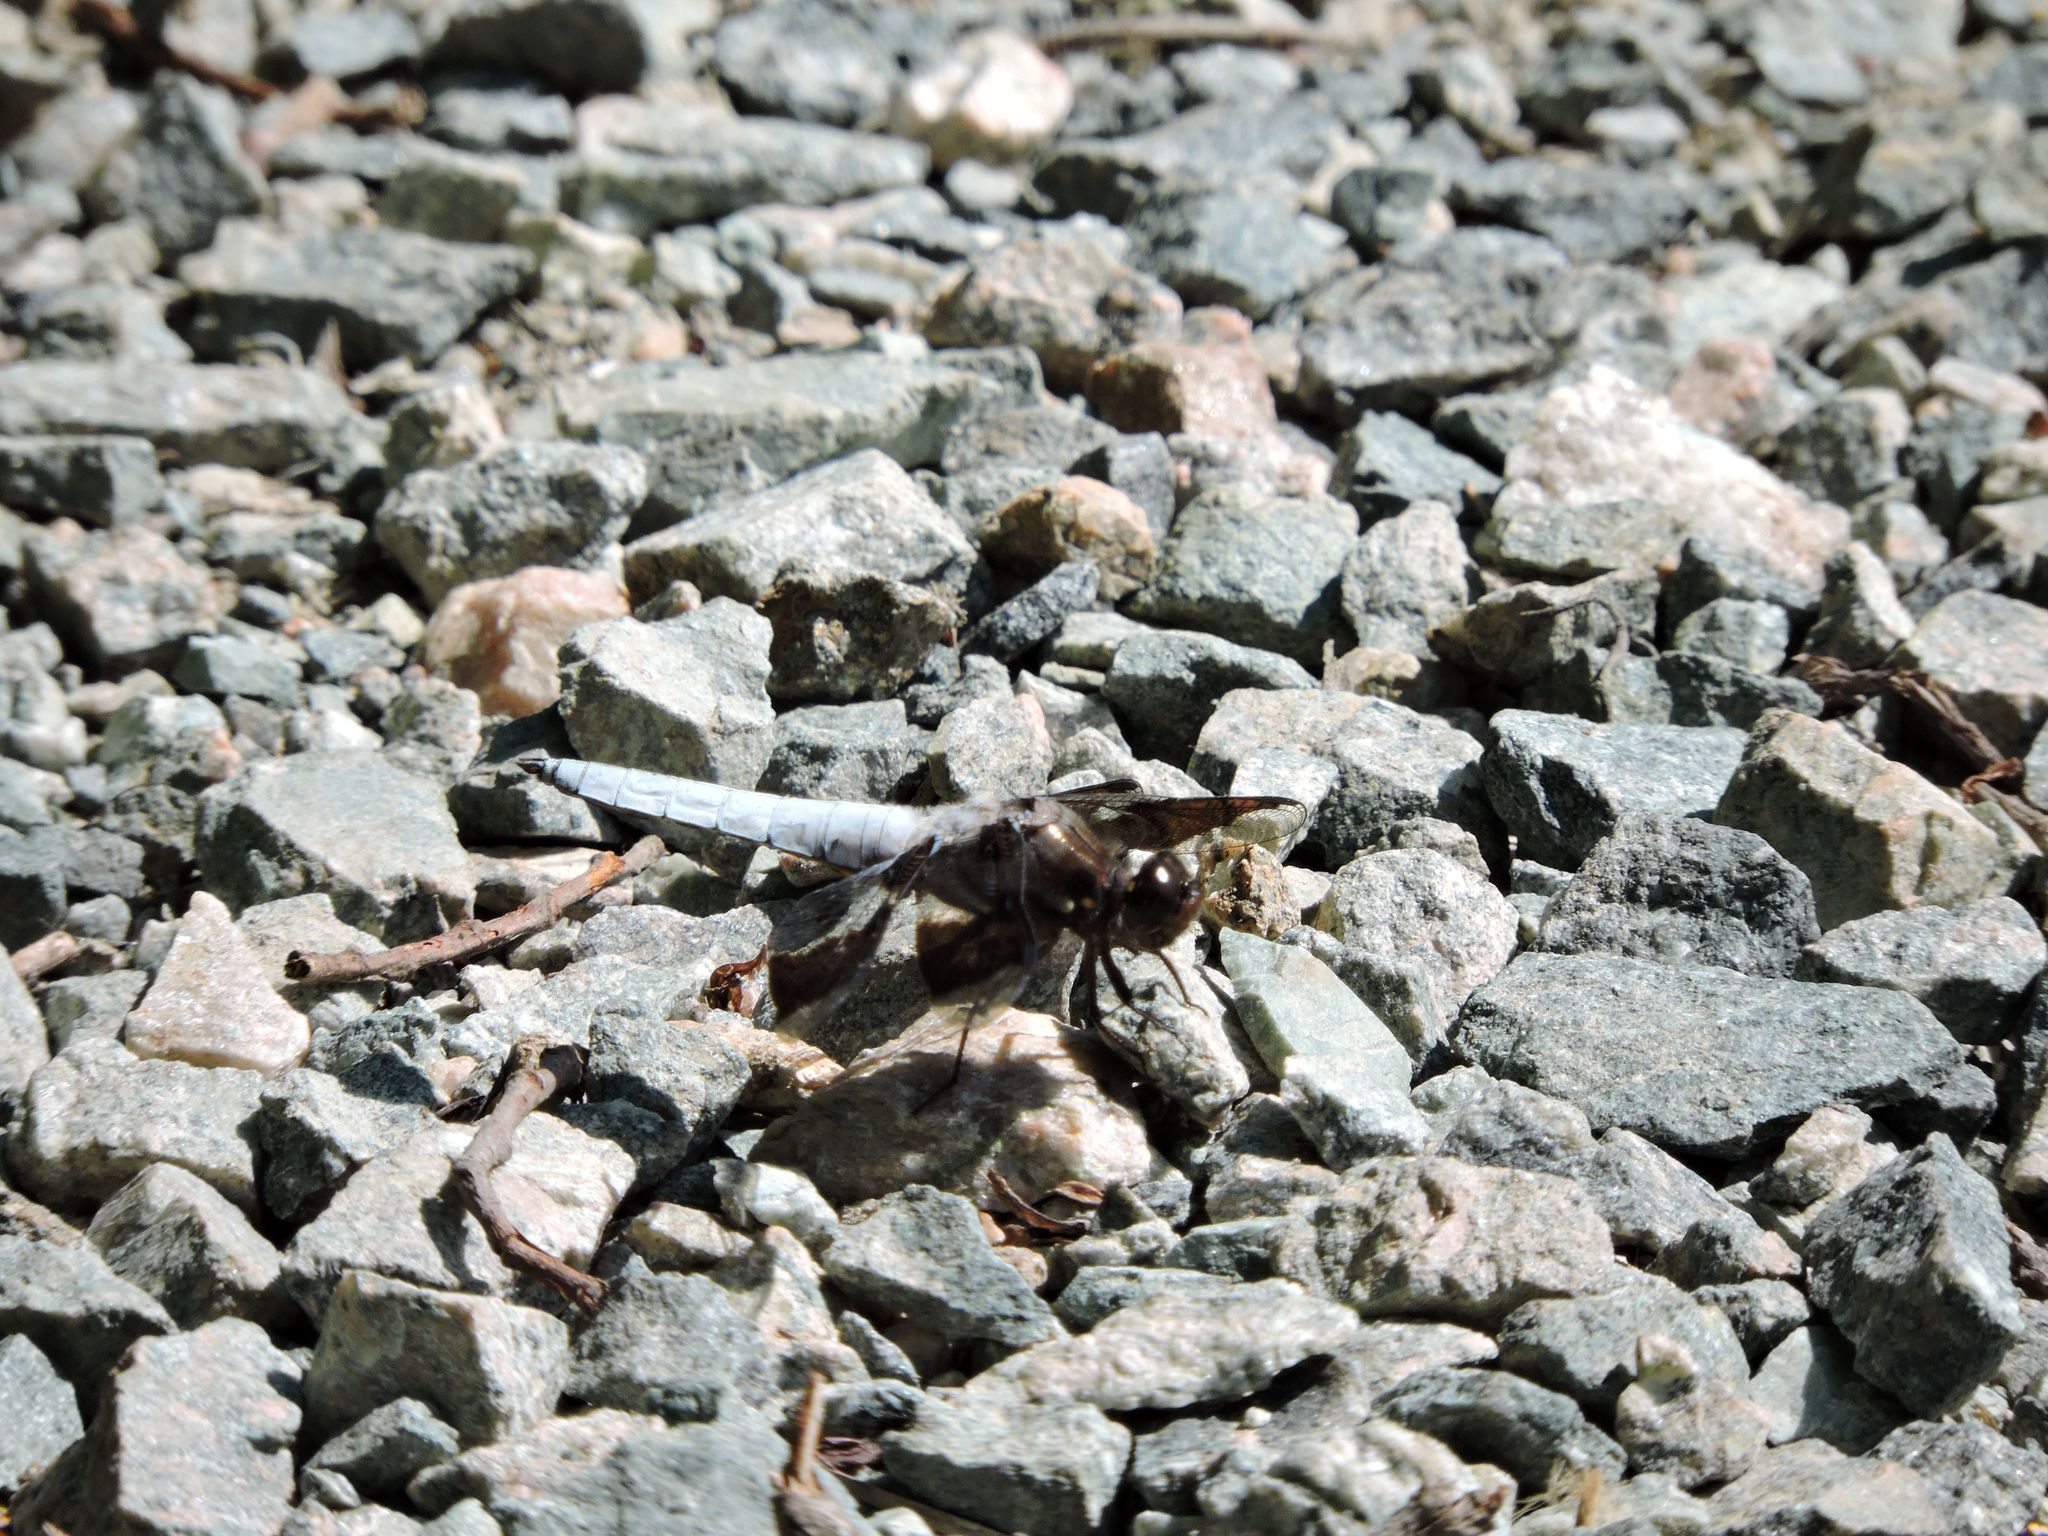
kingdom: Animalia
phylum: Arthropoda
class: Insecta
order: Odonata
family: Libellulidae
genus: Plathemis
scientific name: Plathemis lydia
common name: Common whitetail
